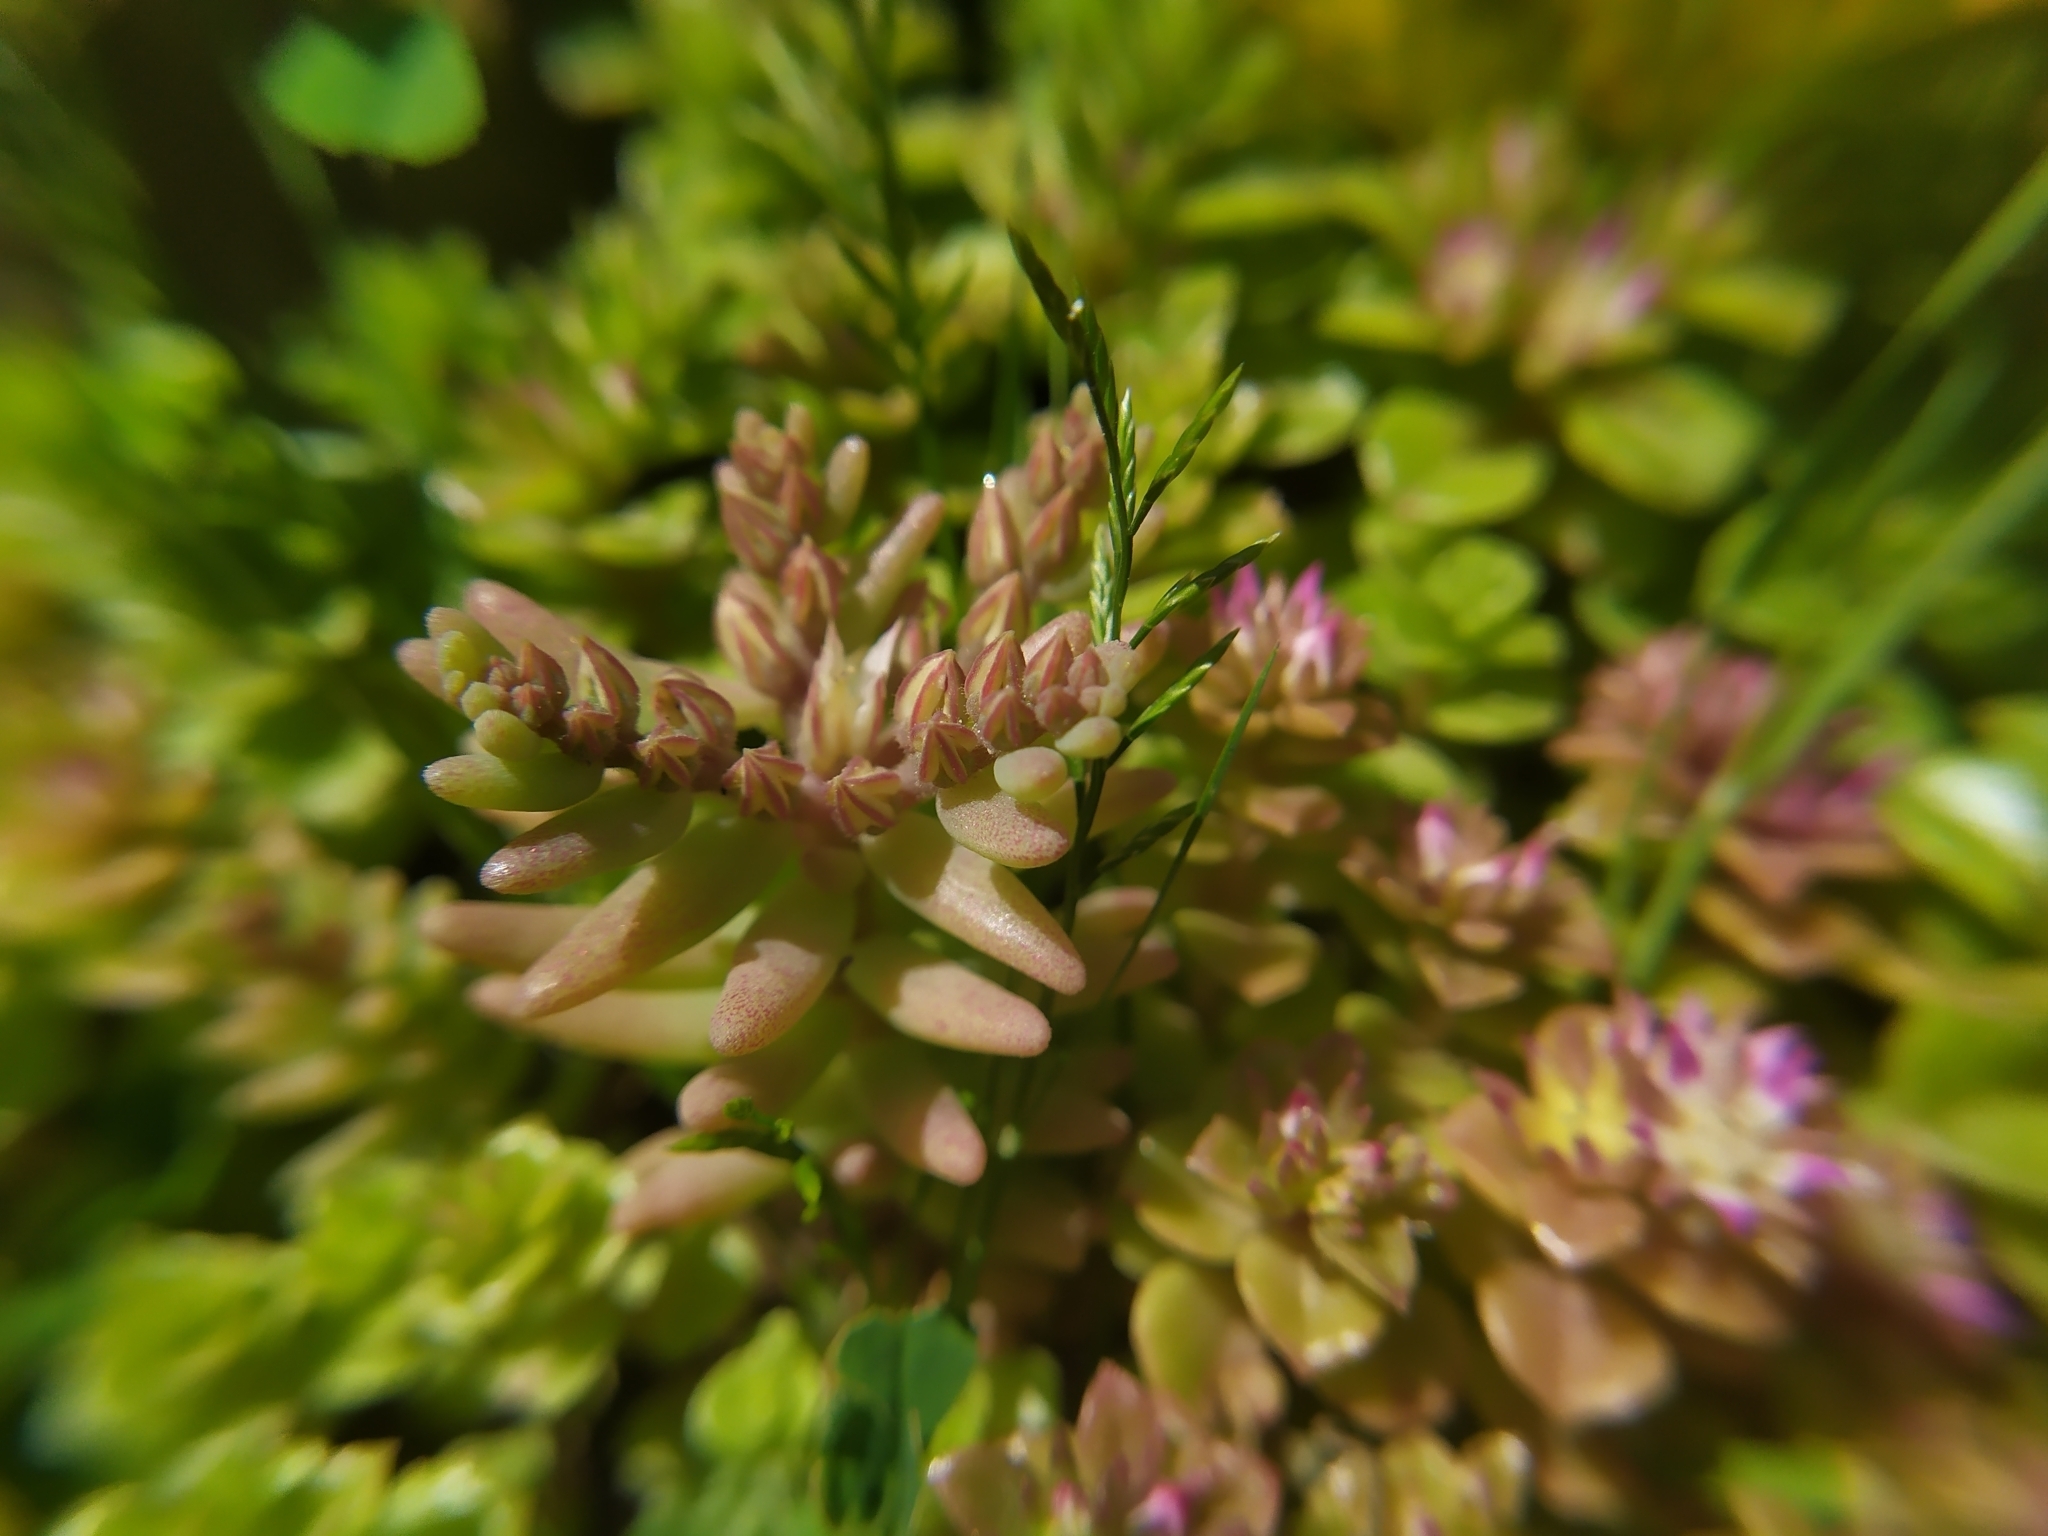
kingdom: Plantae
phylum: Tracheophyta
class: Magnoliopsida
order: Saxifragales
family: Crassulaceae
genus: Sedum
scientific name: Sedum rubens
